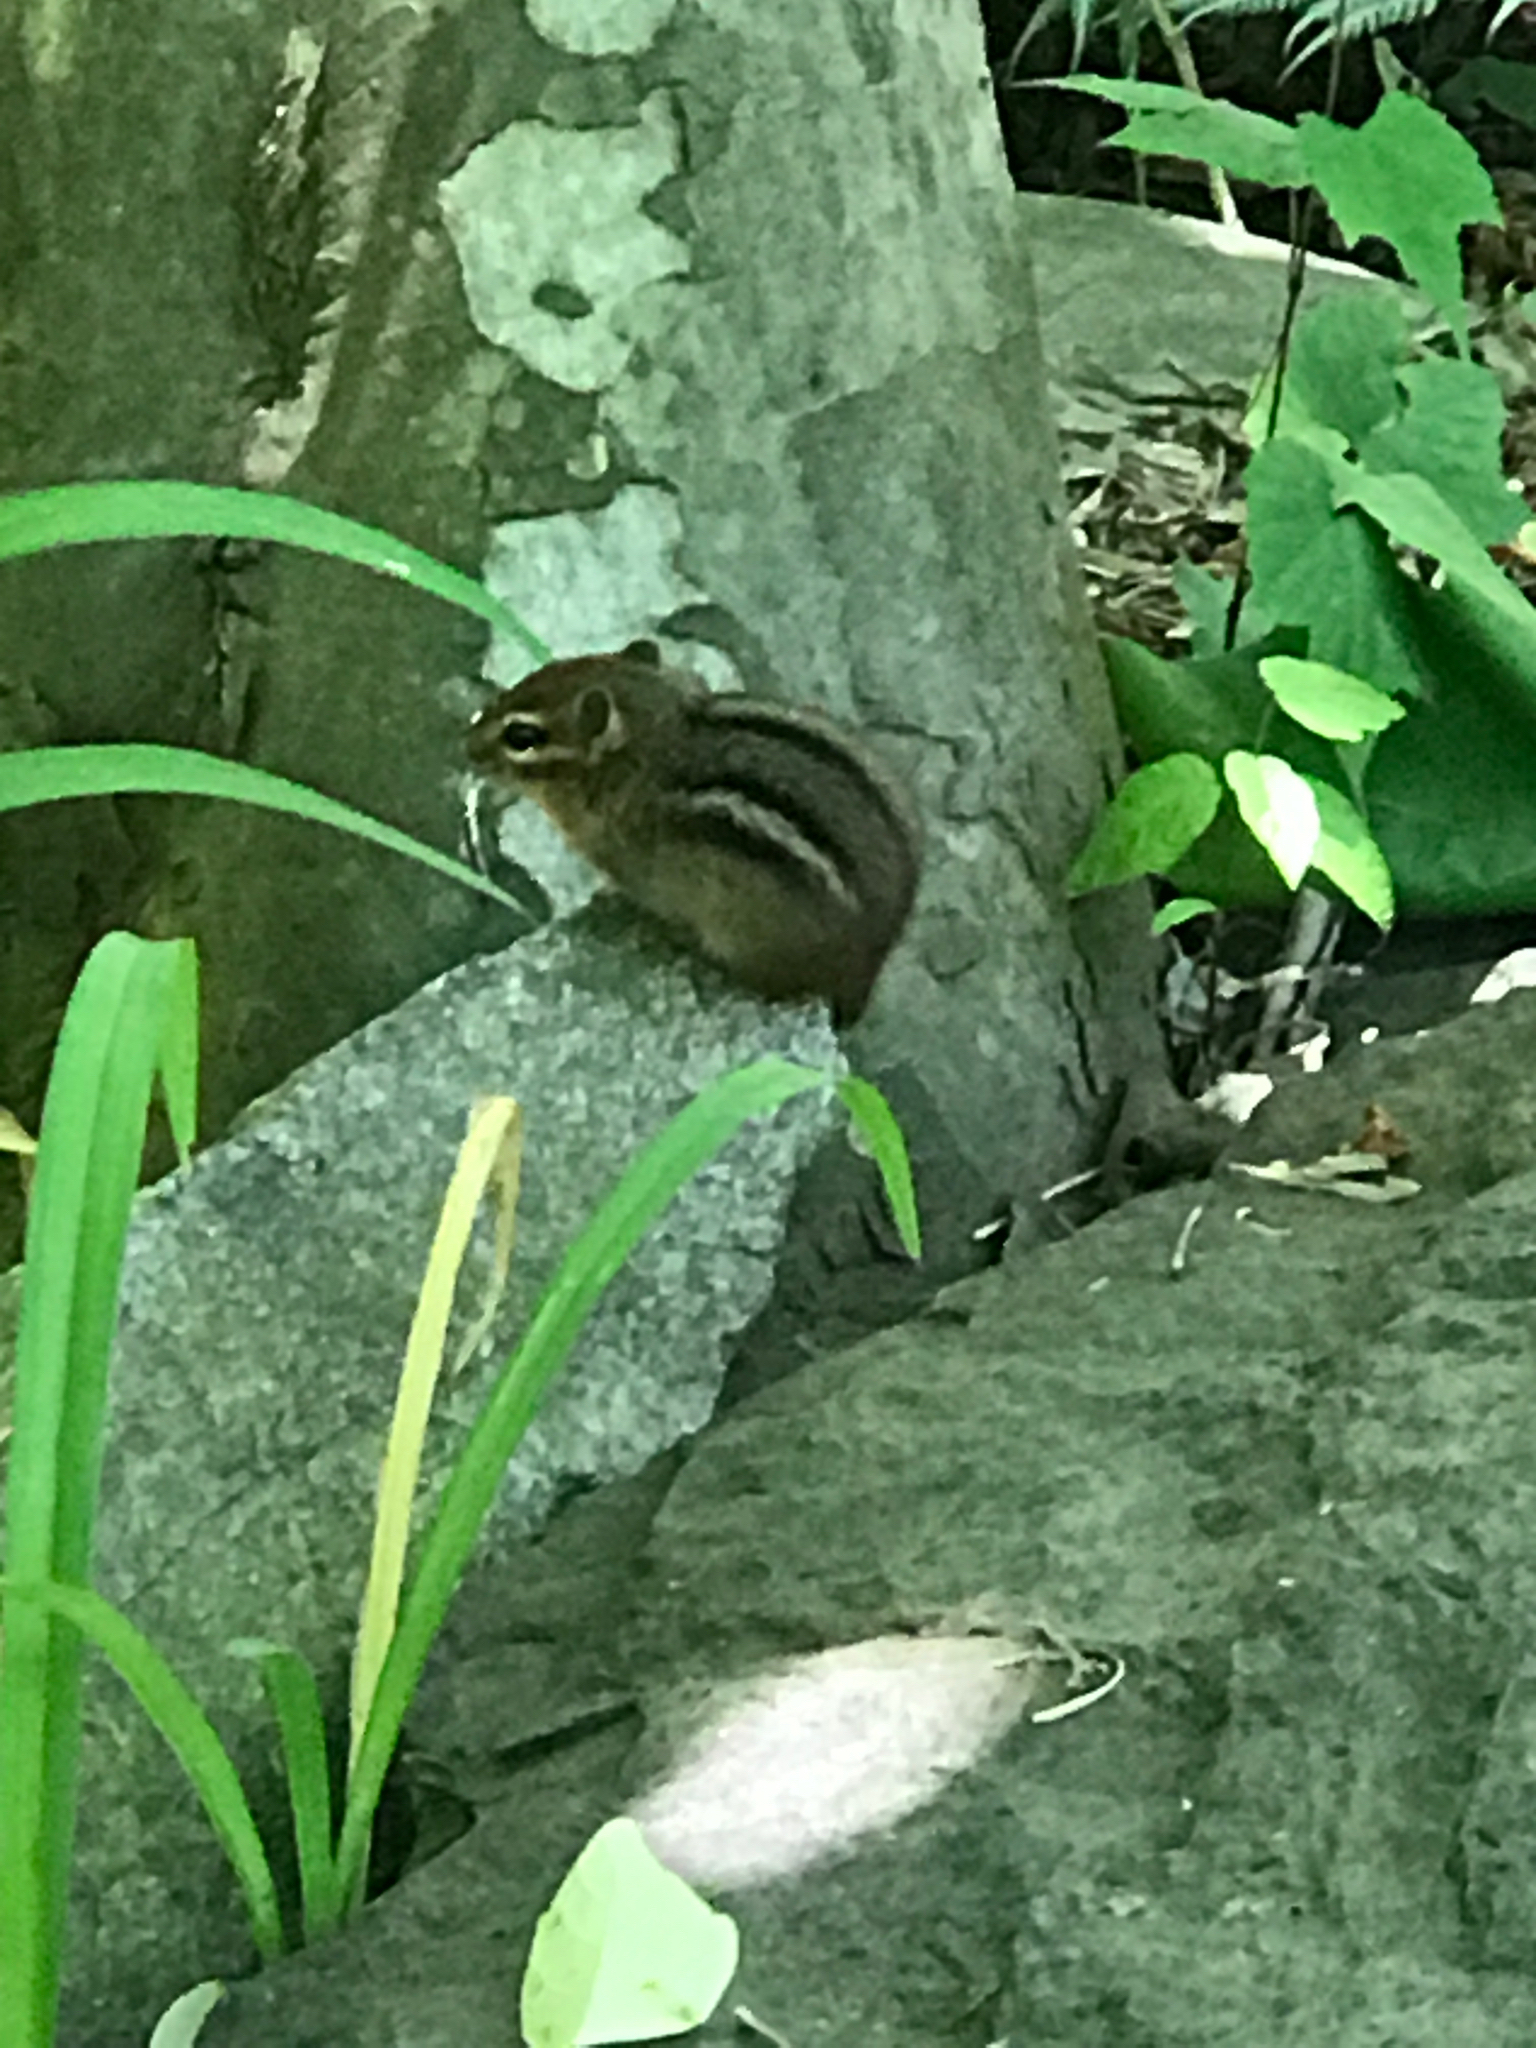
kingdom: Animalia
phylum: Chordata
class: Mammalia
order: Rodentia
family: Sciuridae
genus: Tamias
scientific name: Tamias striatus
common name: Eastern chipmunk
